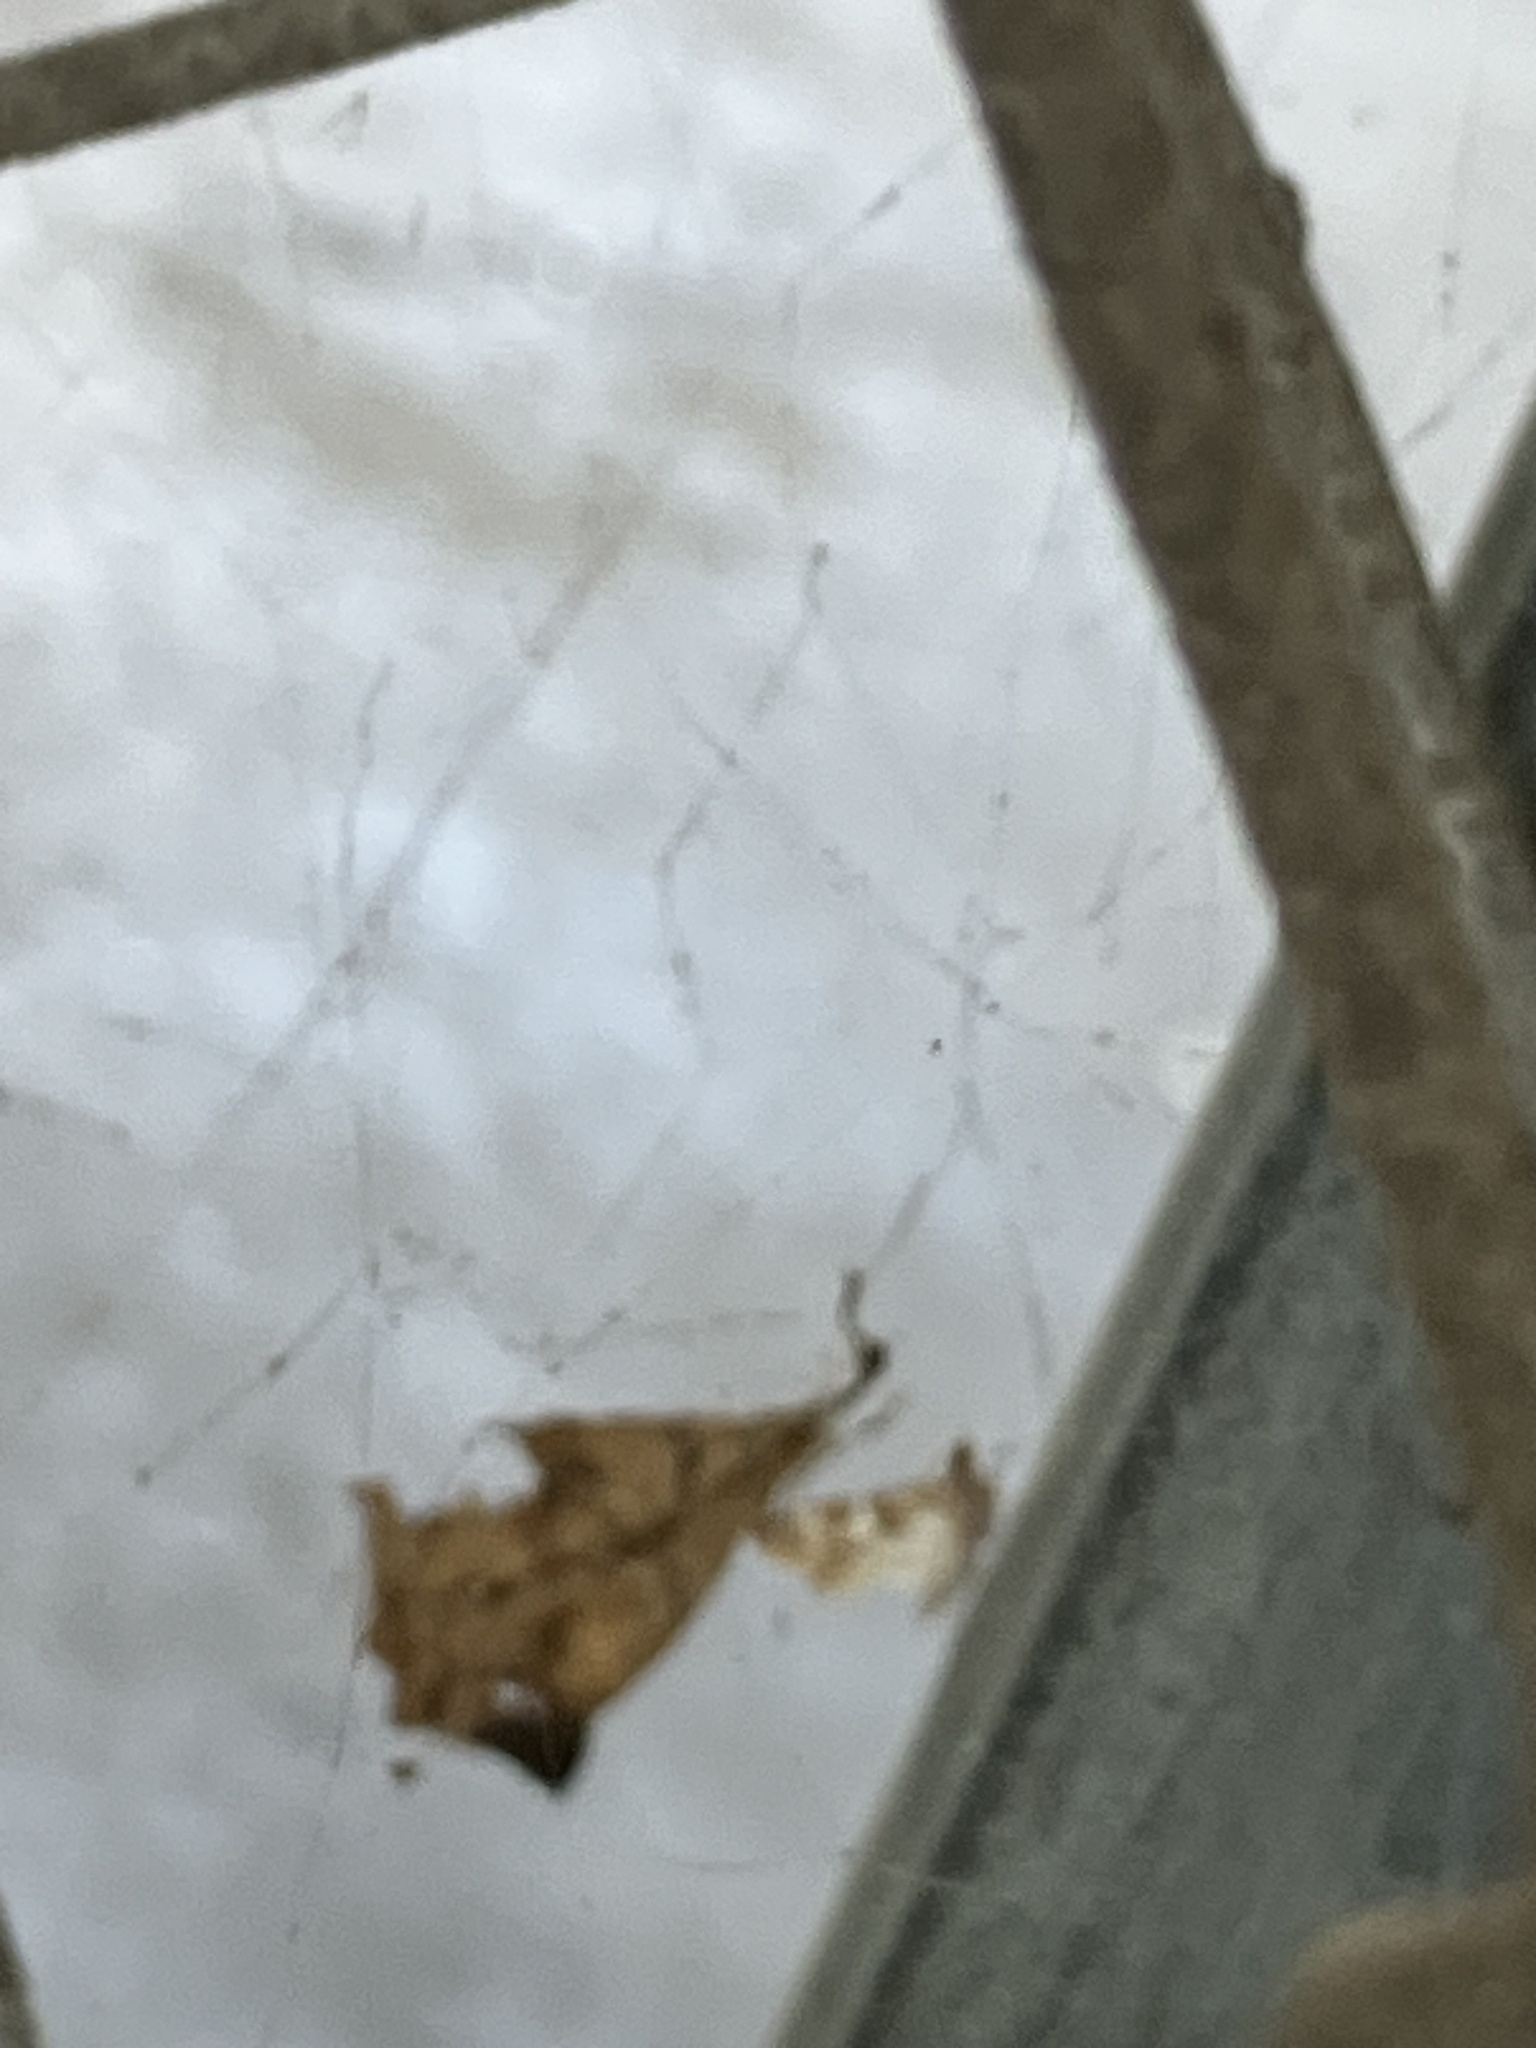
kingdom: Animalia
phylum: Arthropoda
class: Insecta
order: Lepidoptera
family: Crambidae
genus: Samea
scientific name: Samea multiplicalis
